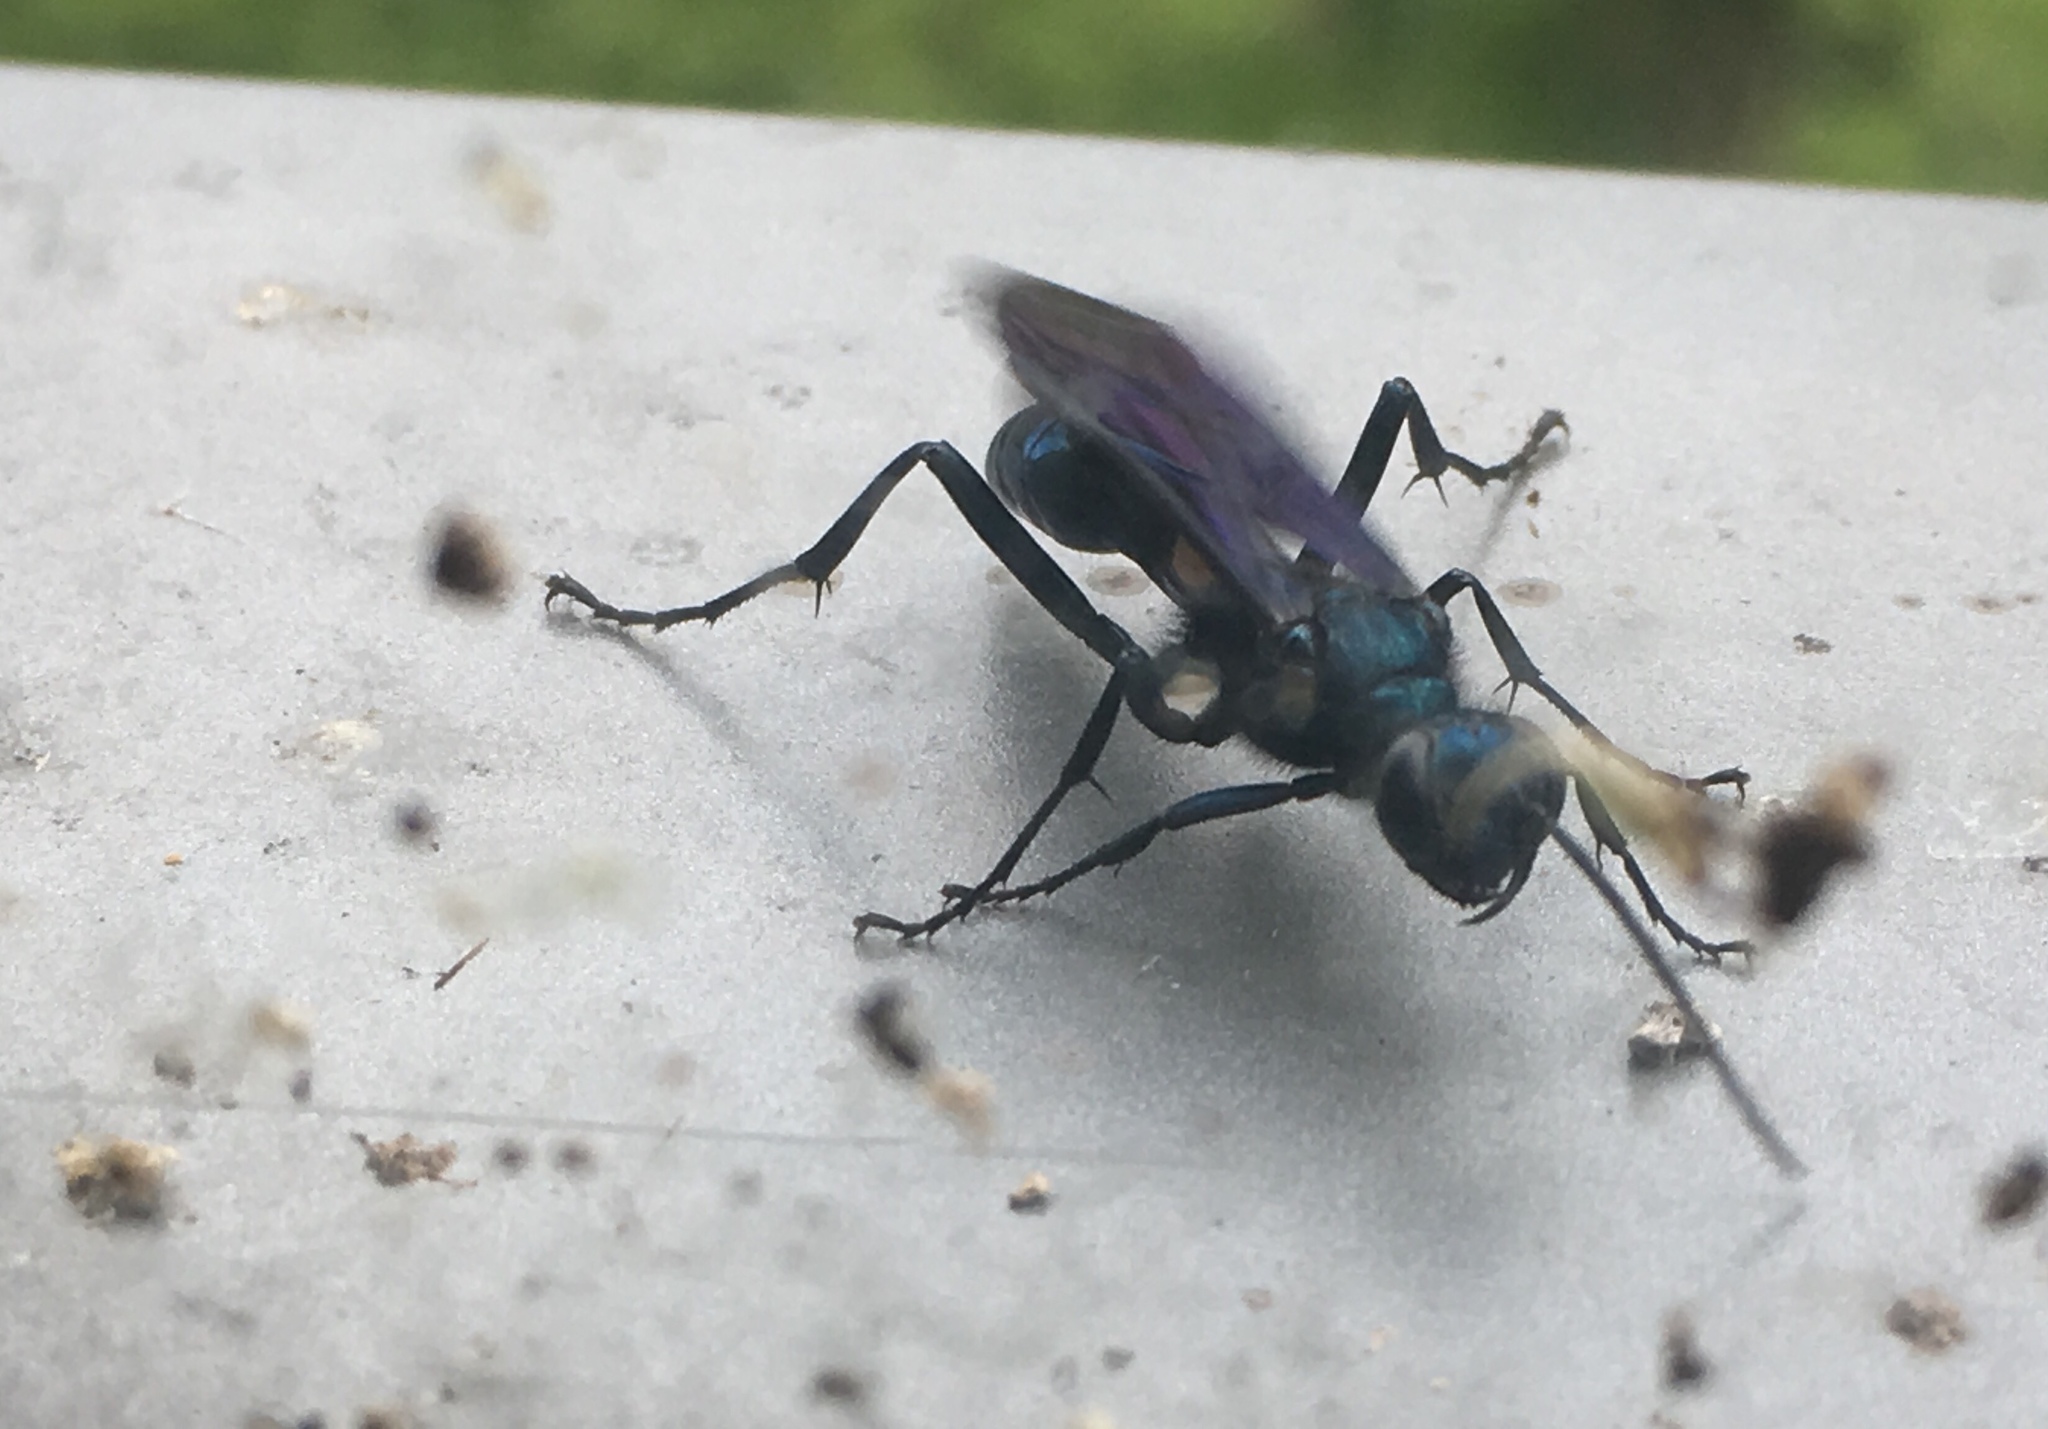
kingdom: Animalia
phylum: Arthropoda
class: Insecta
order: Hymenoptera
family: Sphecidae
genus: Chalybion
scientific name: Chalybion californicum
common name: Mud dauber
